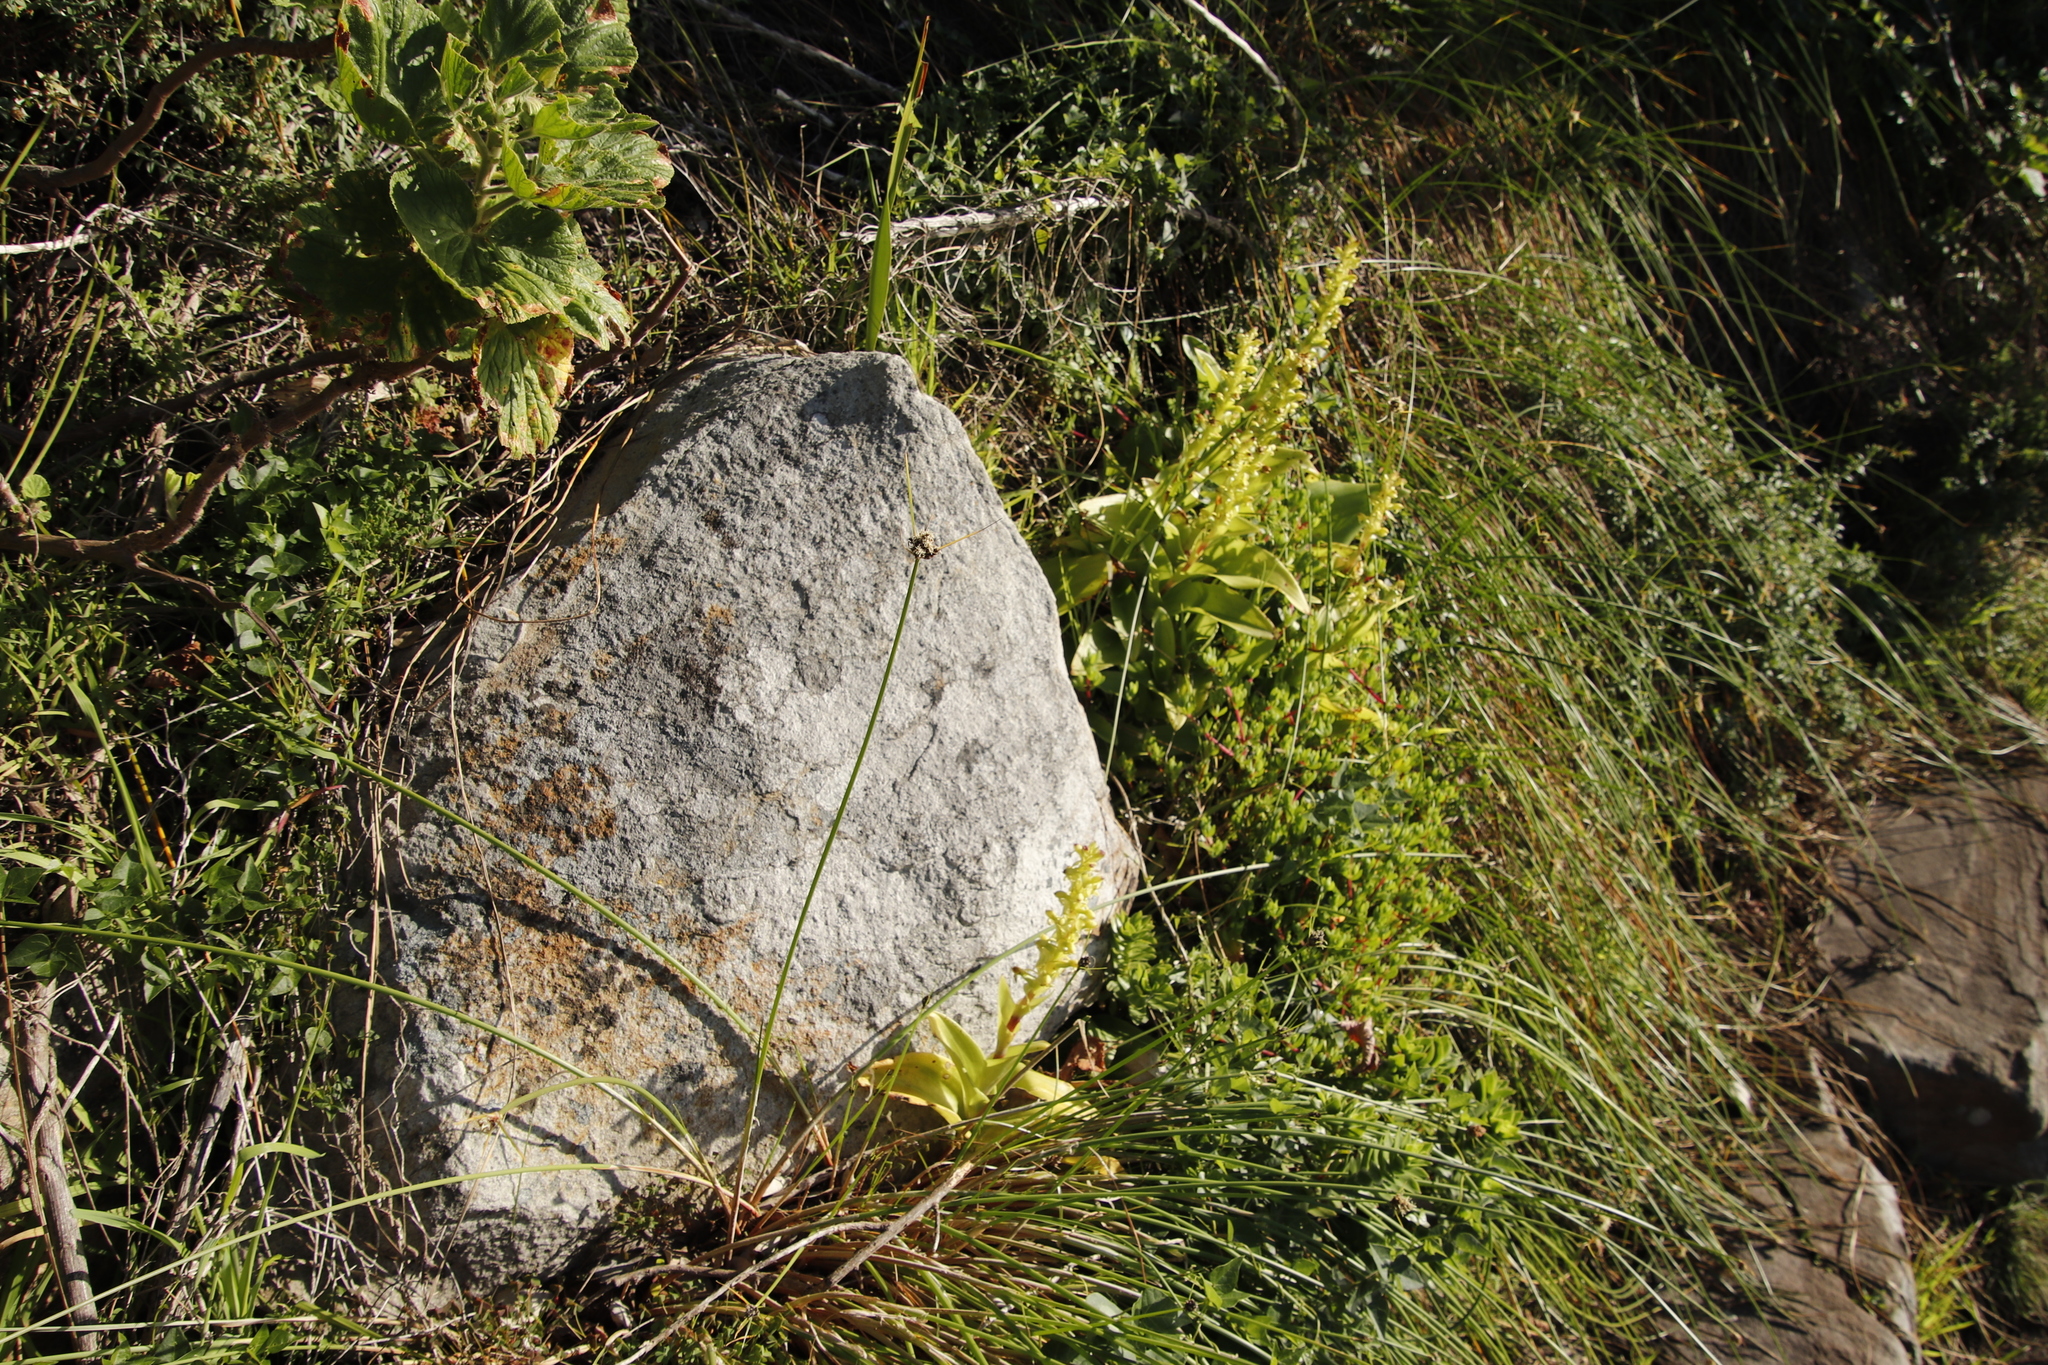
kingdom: Plantae
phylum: Tracheophyta
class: Liliopsida
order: Asparagales
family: Orchidaceae
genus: Satyrium
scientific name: Satyrium odorum
